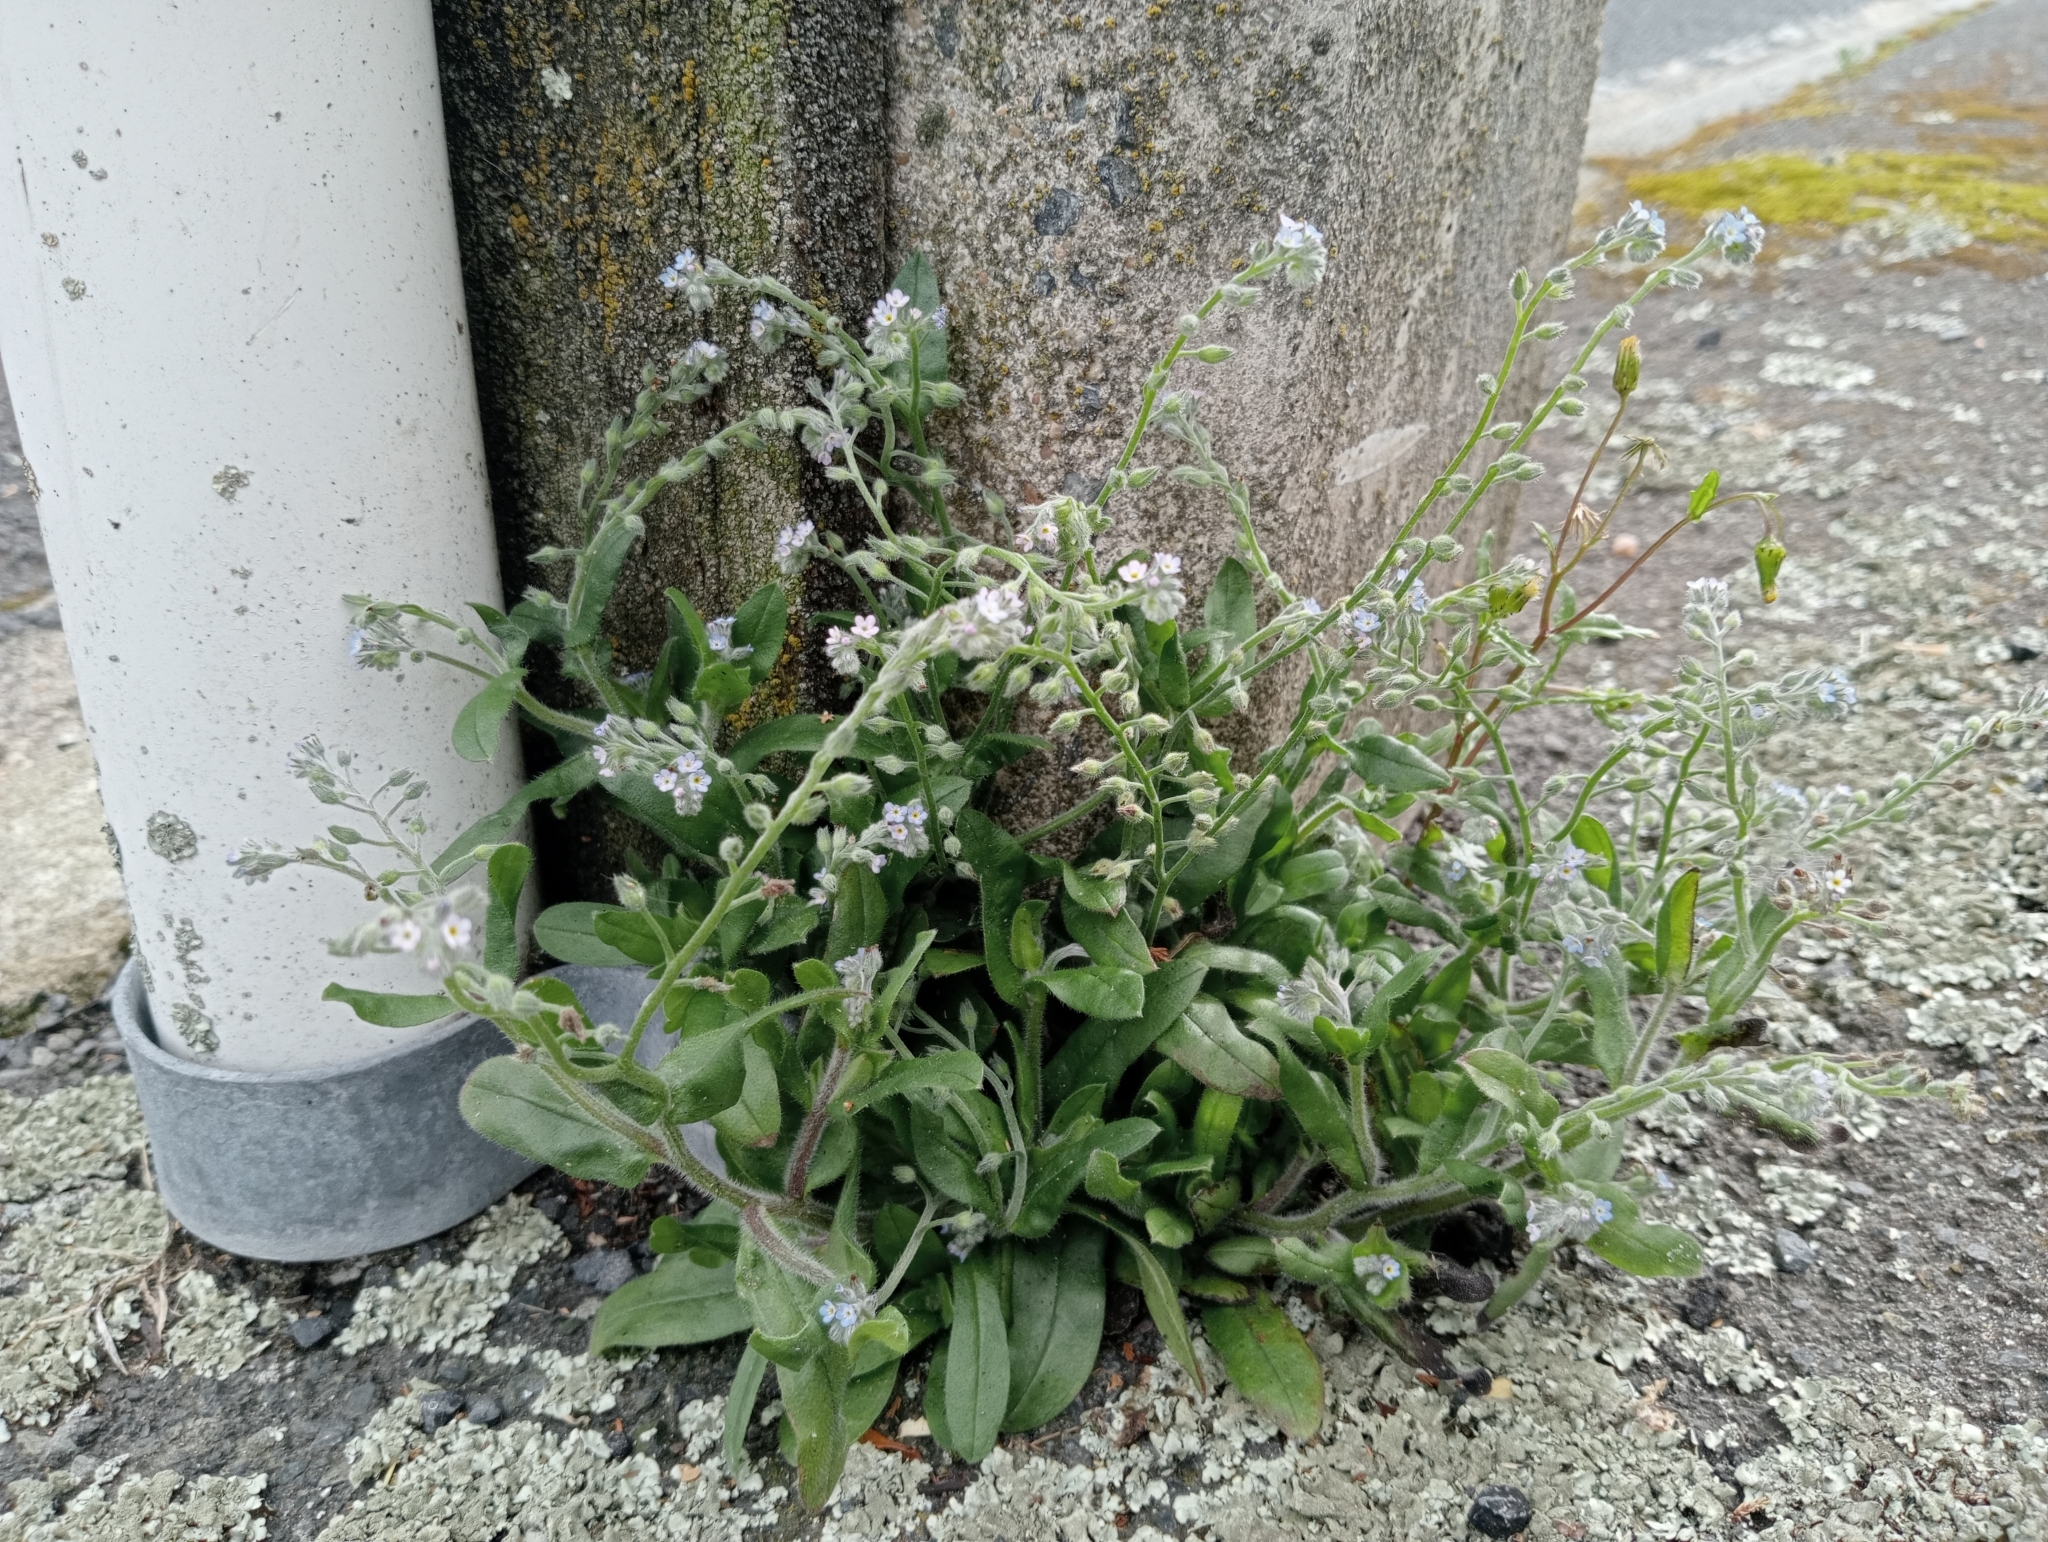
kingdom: Plantae
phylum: Tracheophyta
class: Magnoliopsida
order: Boraginales
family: Boraginaceae
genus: Myosotis
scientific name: Myosotis arvensis
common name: Field forget-me-not
